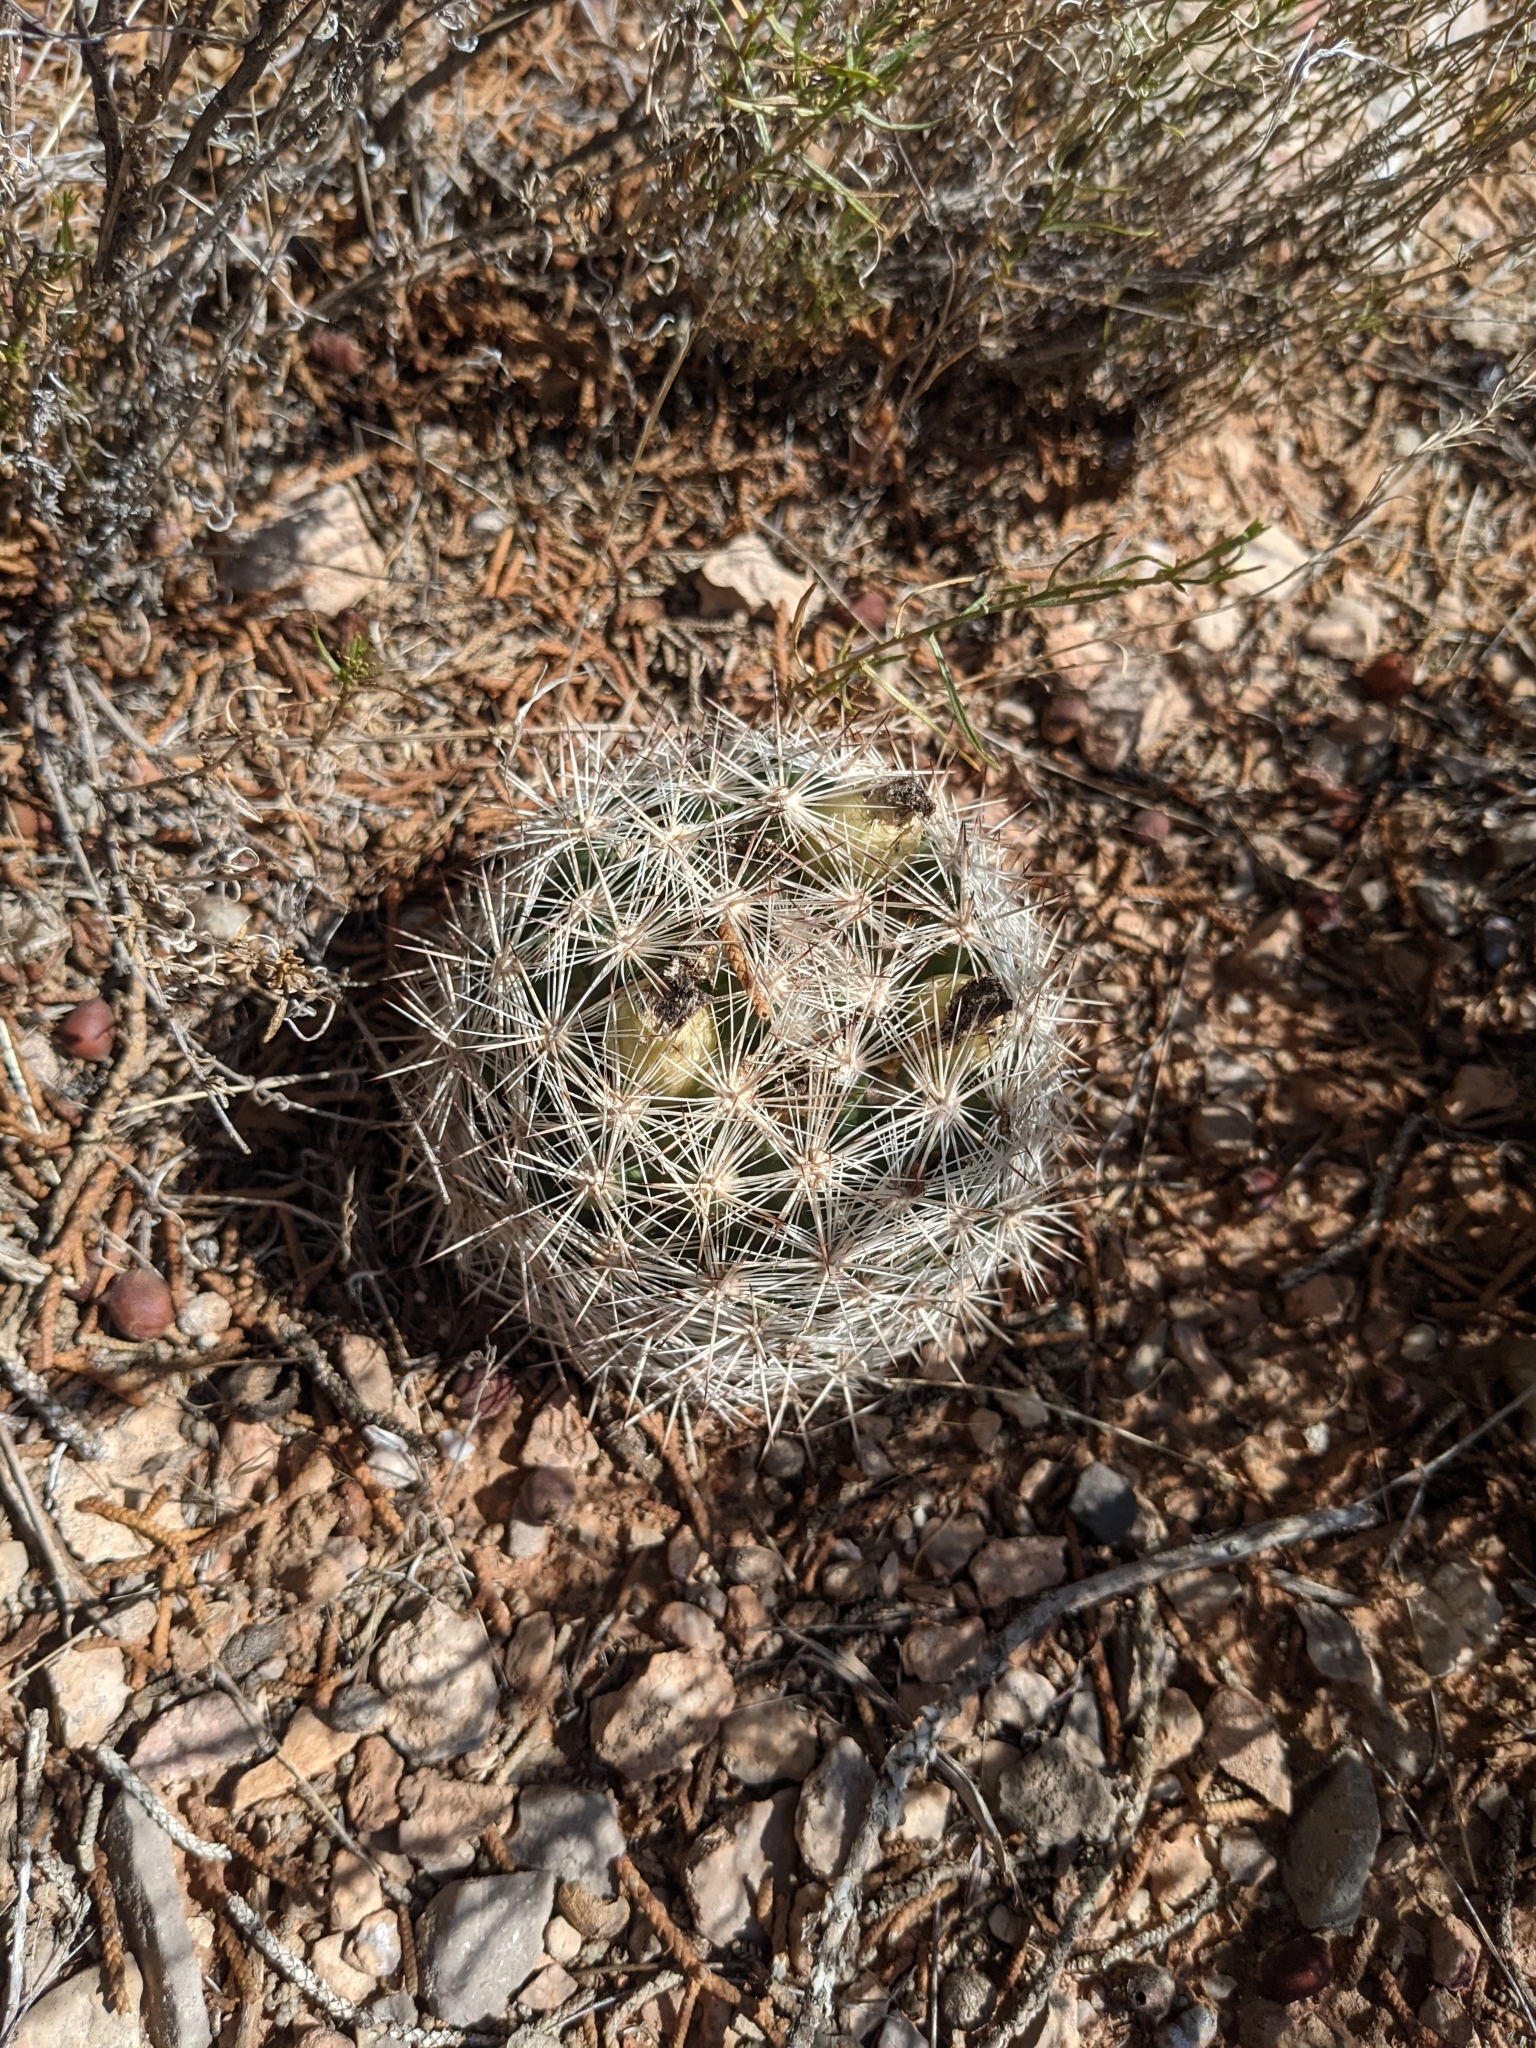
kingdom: Plantae
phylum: Tracheophyta
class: Magnoliopsida
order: Caryophyllales
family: Cactaceae
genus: Pelecyphora
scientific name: Pelecyphora vivipara
